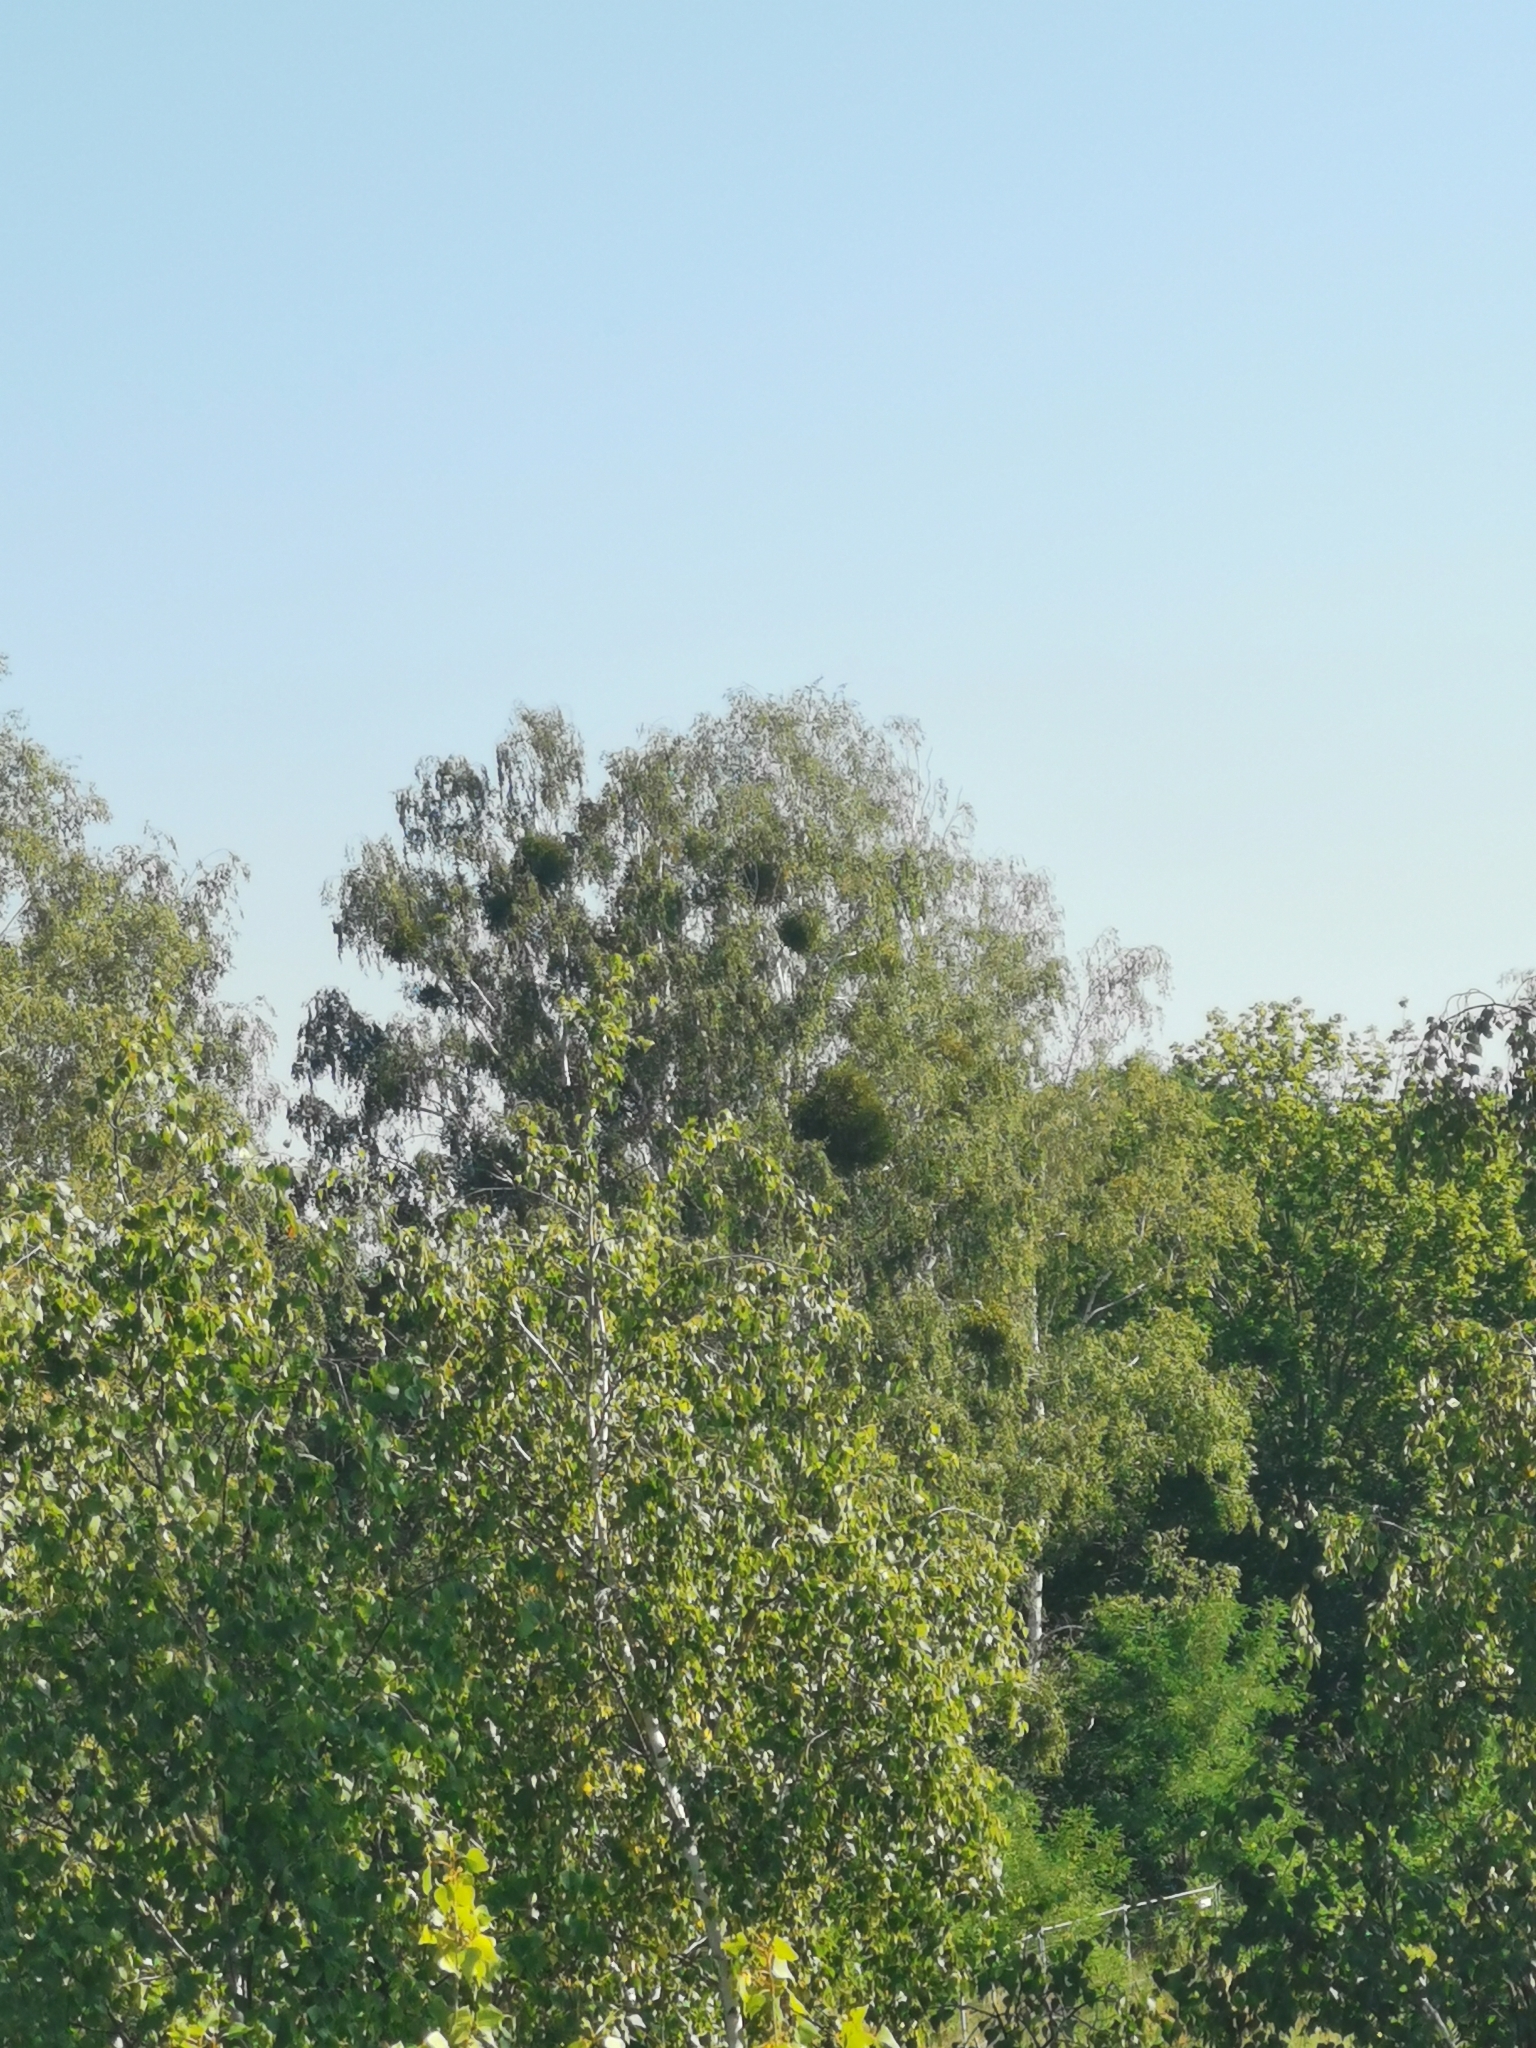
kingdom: Plantae
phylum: Tracheophyta
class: Magnoliopsida
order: Santalales
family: Viscaceae
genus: Viscum
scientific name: Viscum album
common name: Mistletoe
